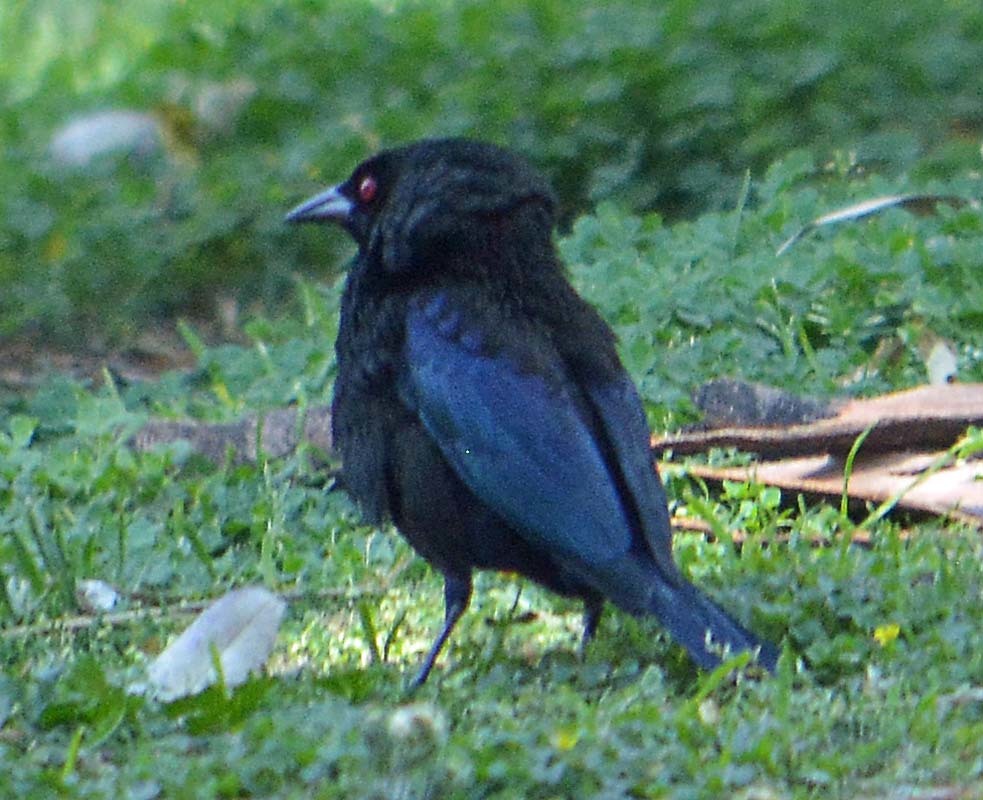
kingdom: Animalia
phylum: Chordata
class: Aves
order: Passeriformes
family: Icteridae
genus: Molothrus
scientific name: Molothrus aeneus
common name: Bronzed cowbird
